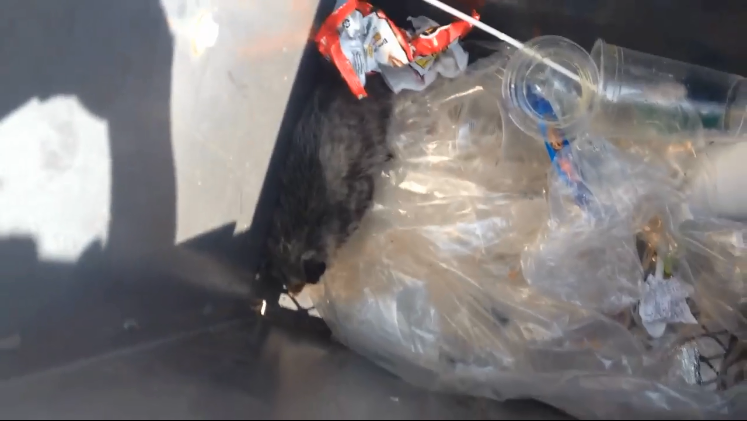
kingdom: Animalia
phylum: Chordata
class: Mammalia
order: Didelphimorphia
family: Didelphidae
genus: Didelphis
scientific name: Didelphis virginiana
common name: Virginia opossum
